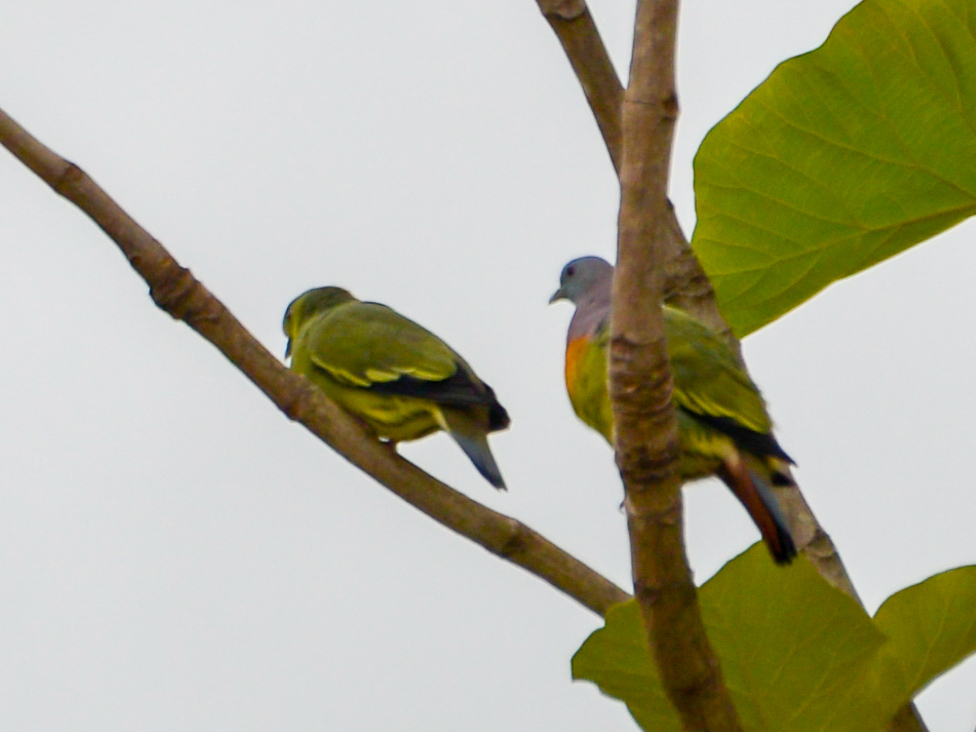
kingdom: Animalia
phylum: Chordata
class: Aves
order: Columbiformes
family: Columbidae
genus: Treron
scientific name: Treron vernans
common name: Pink-necked green pigeon
